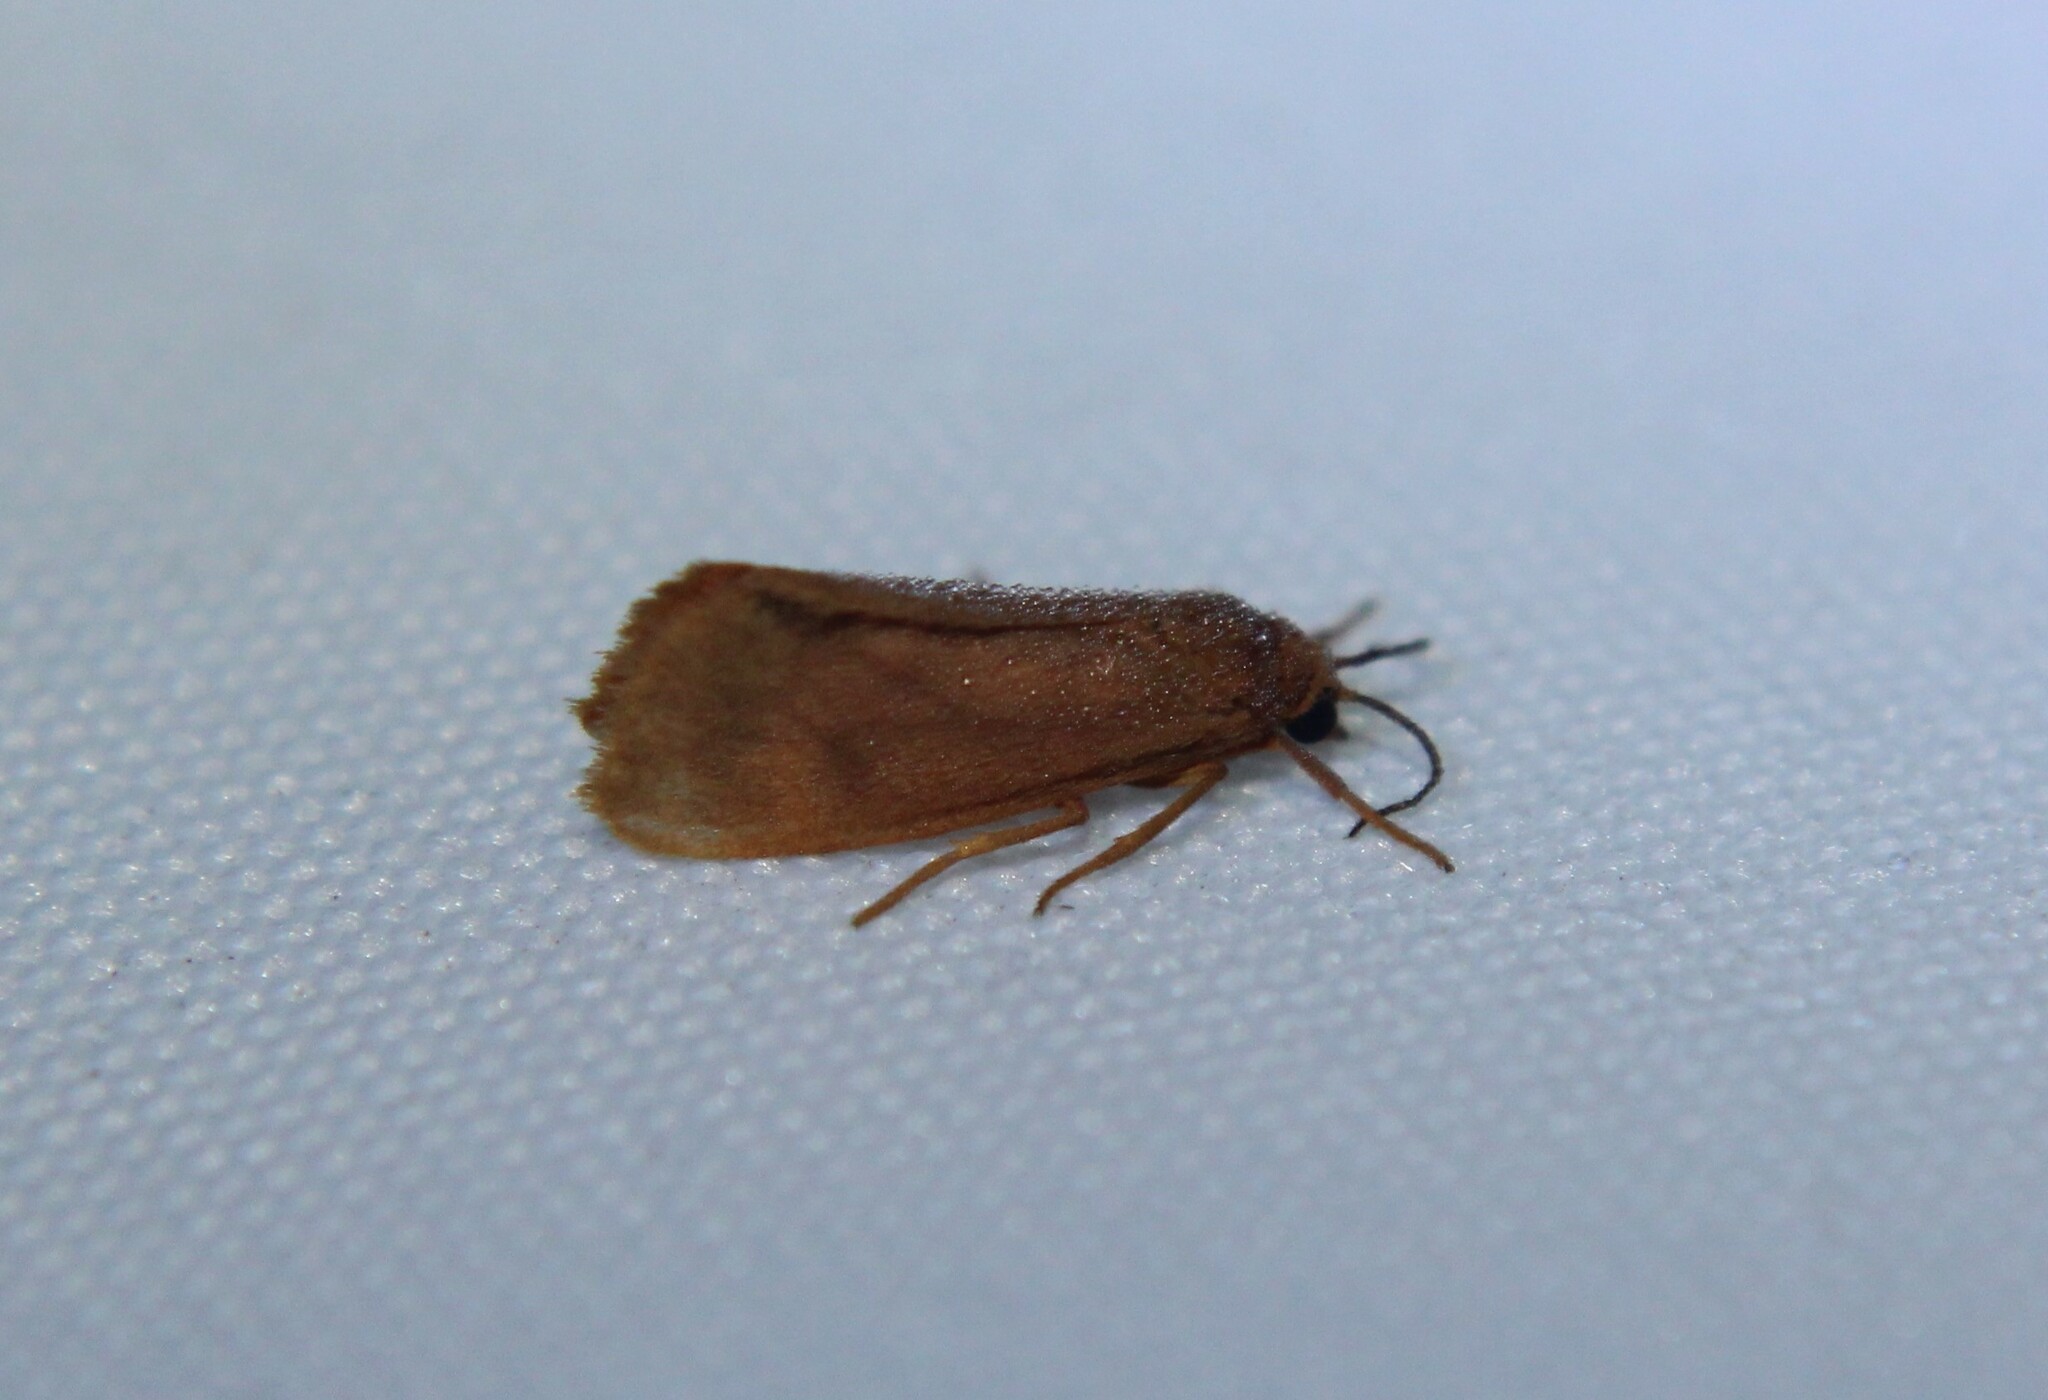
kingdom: Animalia
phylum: Arthropoda
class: Insecta
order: Lepidoptera
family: Erebidae
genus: Virbia
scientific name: Virbia aurantiaca
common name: Orange virbia moth
